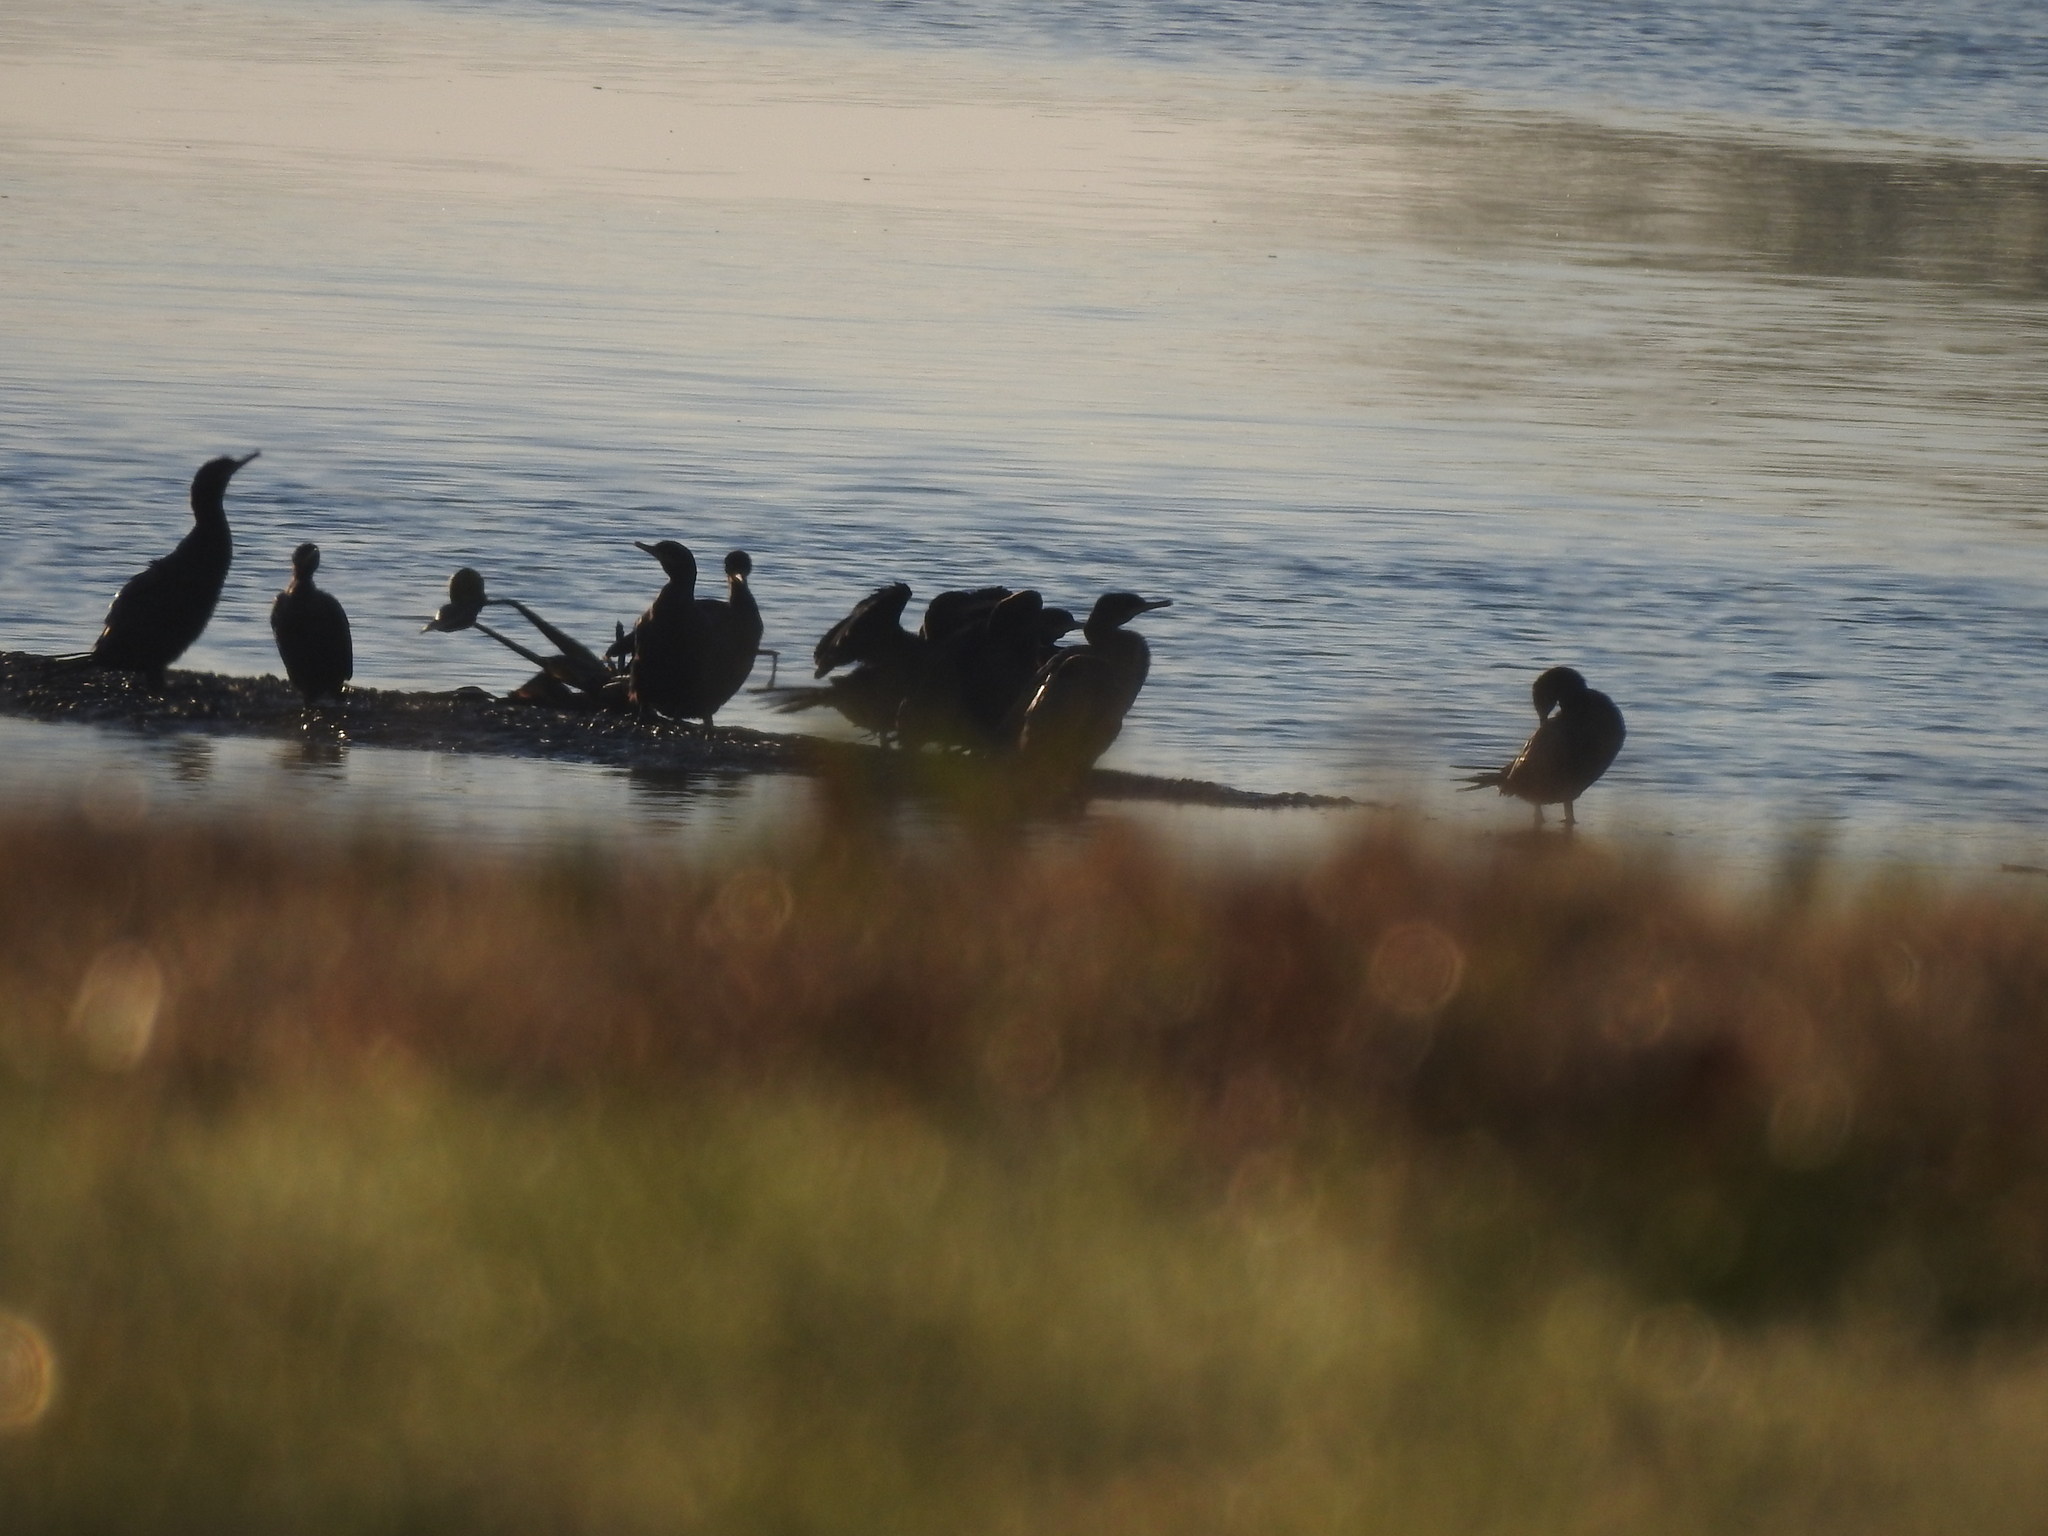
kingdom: Animalia
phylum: Chordata
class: Aves
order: Suliformes
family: Phalacrocoracidae
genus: Phalacrocorax
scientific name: Phalacrocorax brasilianus
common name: Neotropic cormorant
